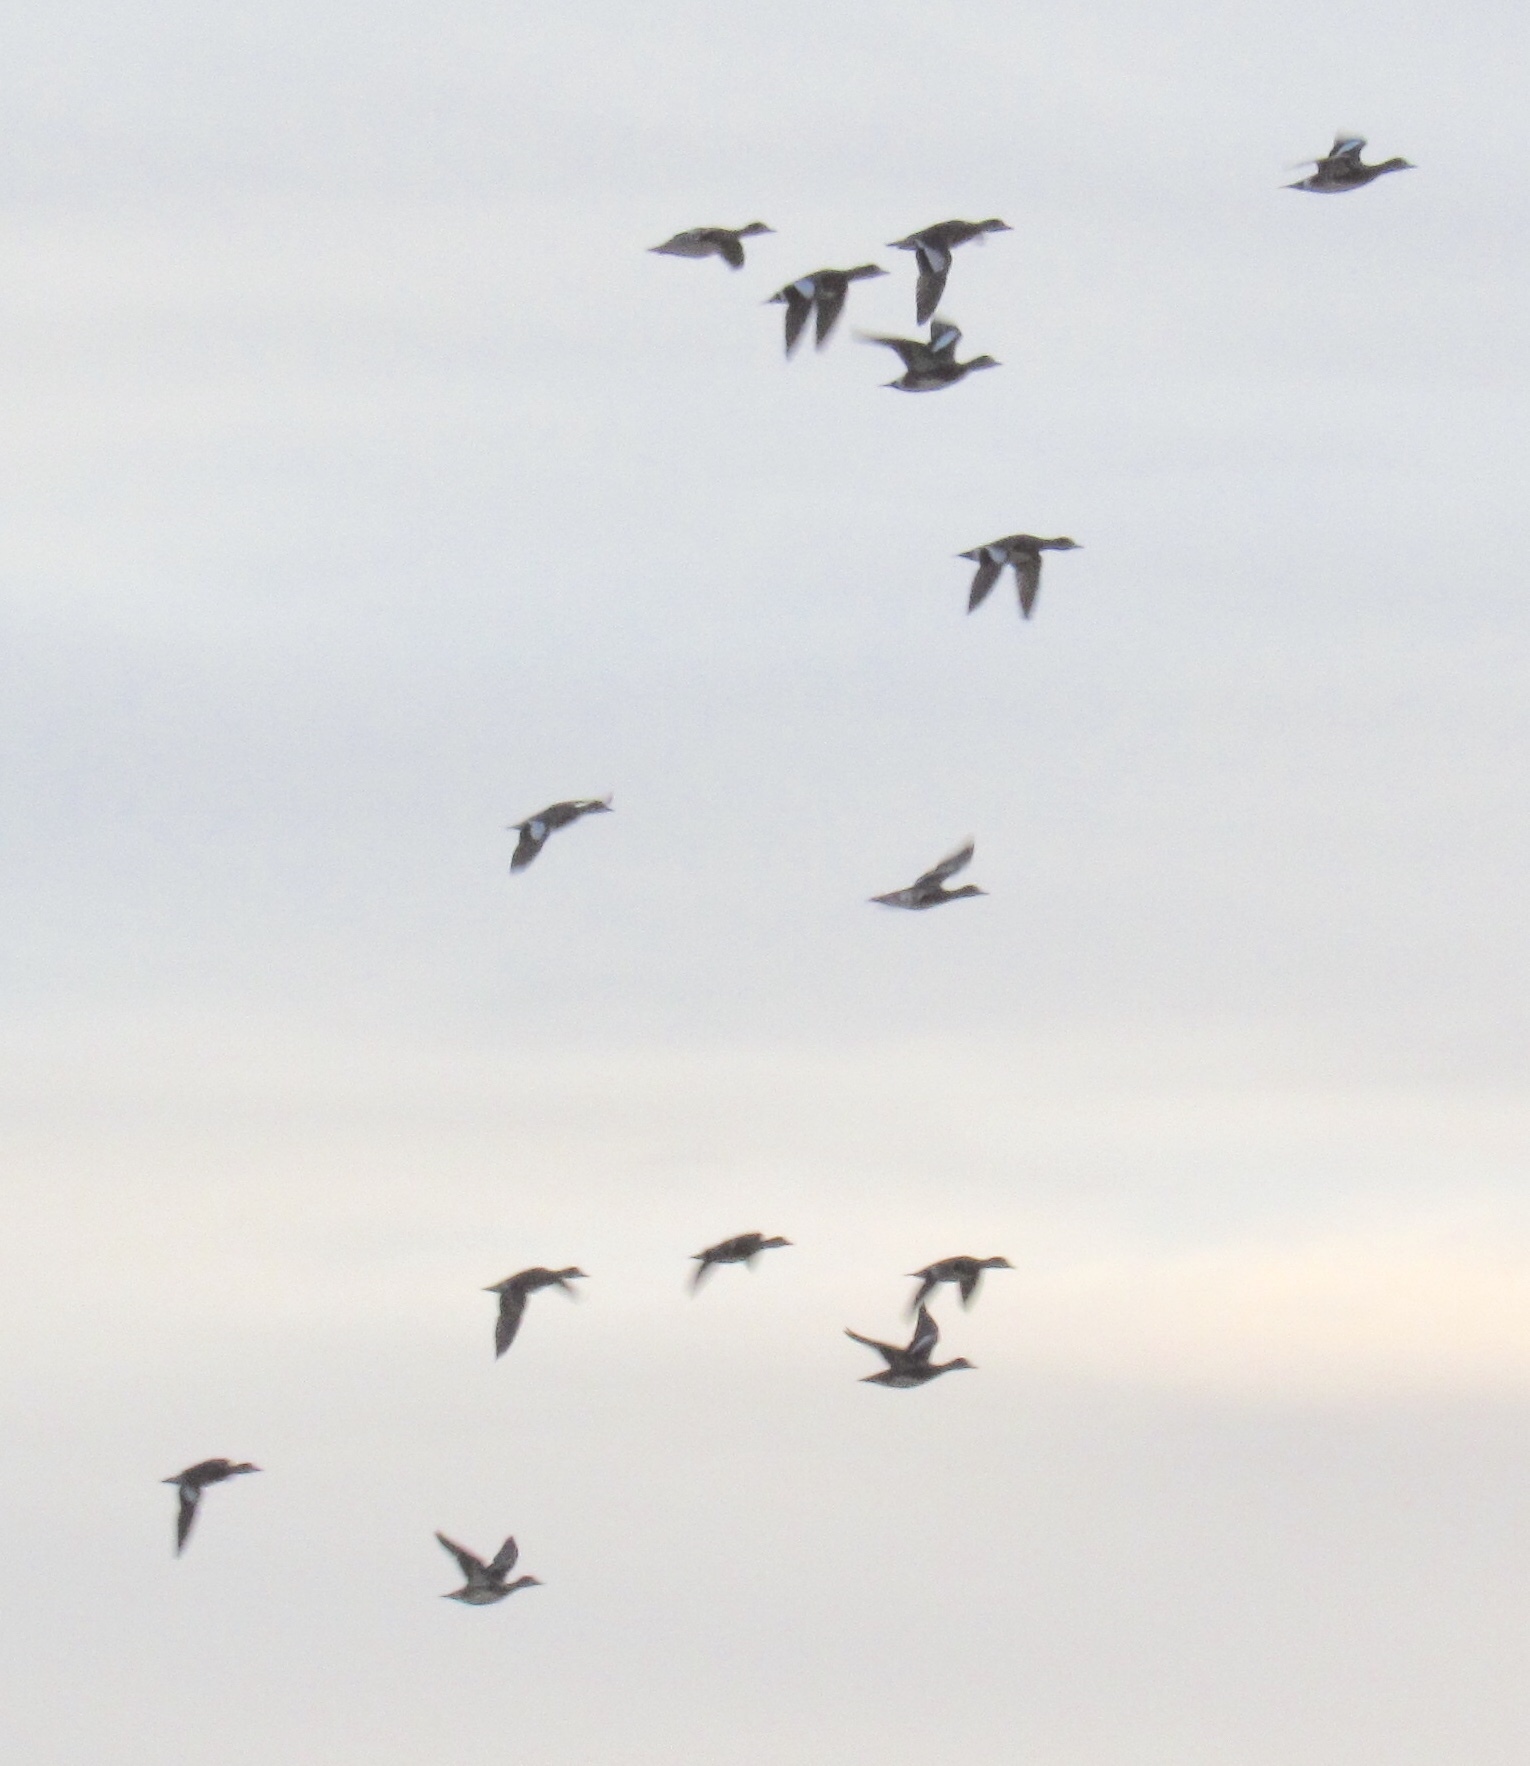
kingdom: Animalia
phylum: Chordata
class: Aves
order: Anseriformes
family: Anatidae
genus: Mareca
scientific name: Mareca americana
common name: American wigeon
